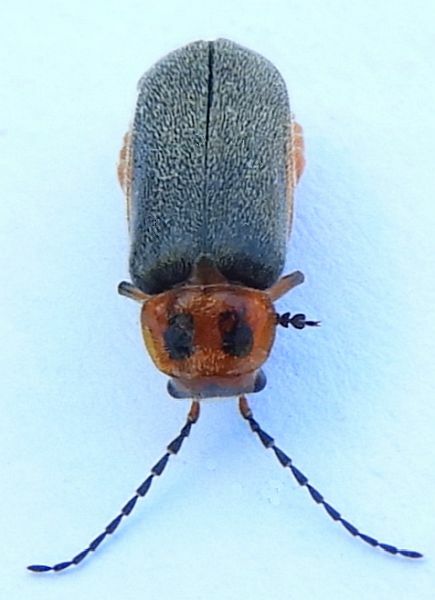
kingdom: Animalia
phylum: Arthropoda
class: Insecta
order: Coleoptera
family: Cantharidae
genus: Atalantycha
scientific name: Atalantycha bilineata
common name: Two-lined leatherwing
